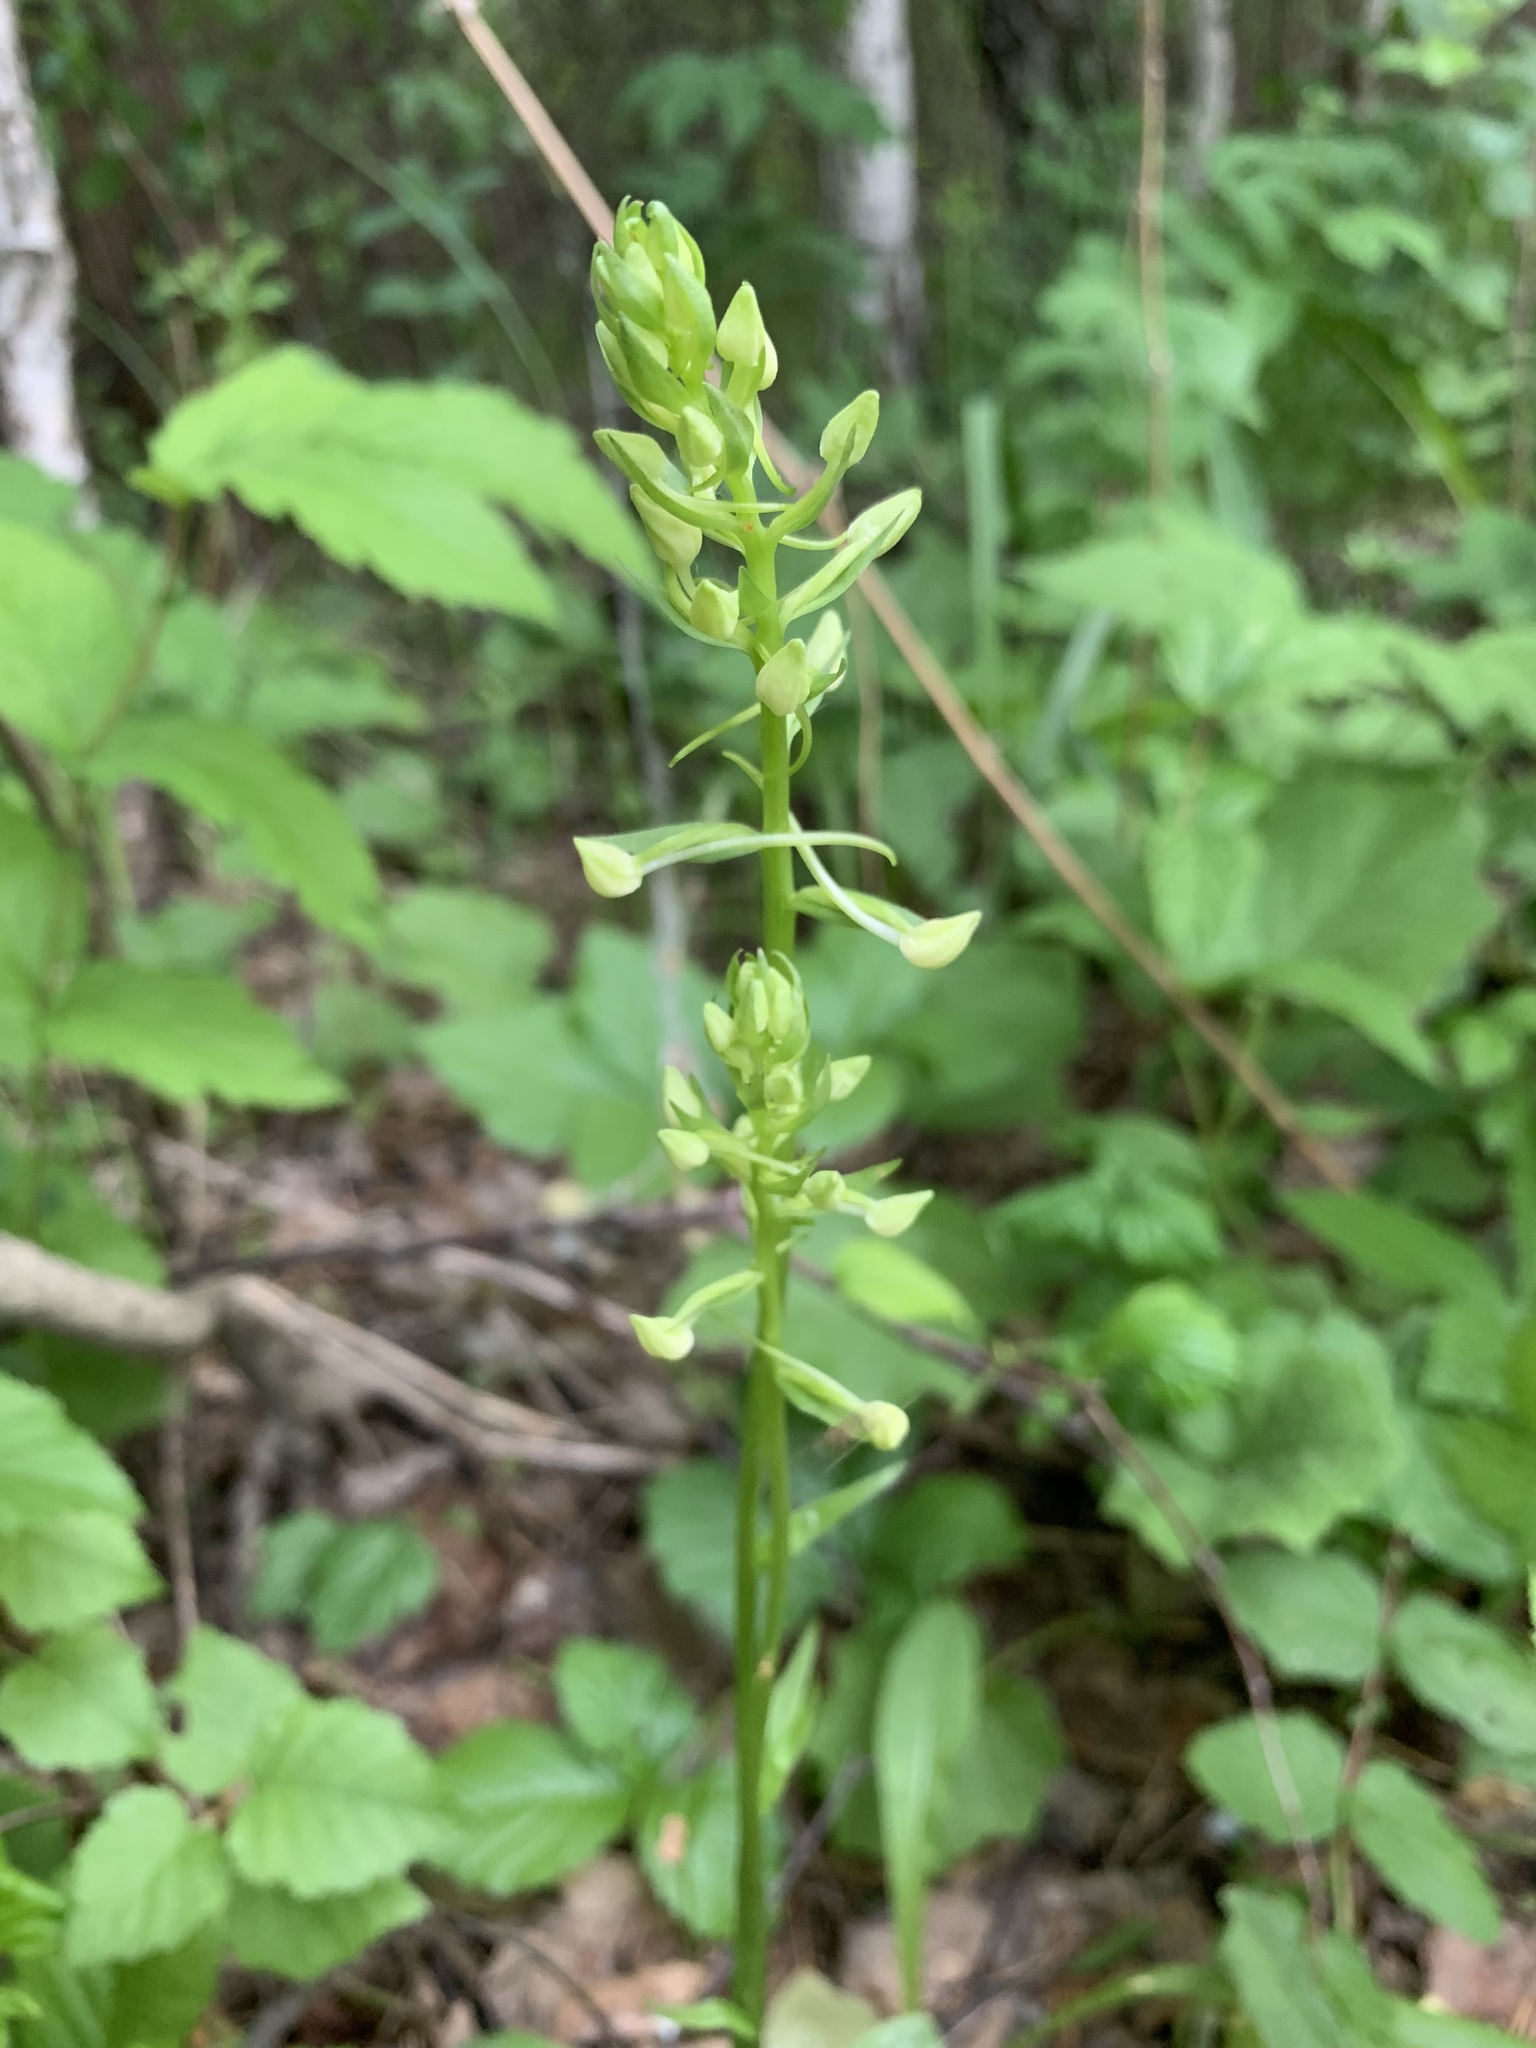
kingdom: Plantae
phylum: Tracheophyta
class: Liliopsida
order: Asparagales
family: Orchidaceae
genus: Platanthera
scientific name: Platanthera bifolia
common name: Lesser butterfly-orchid
